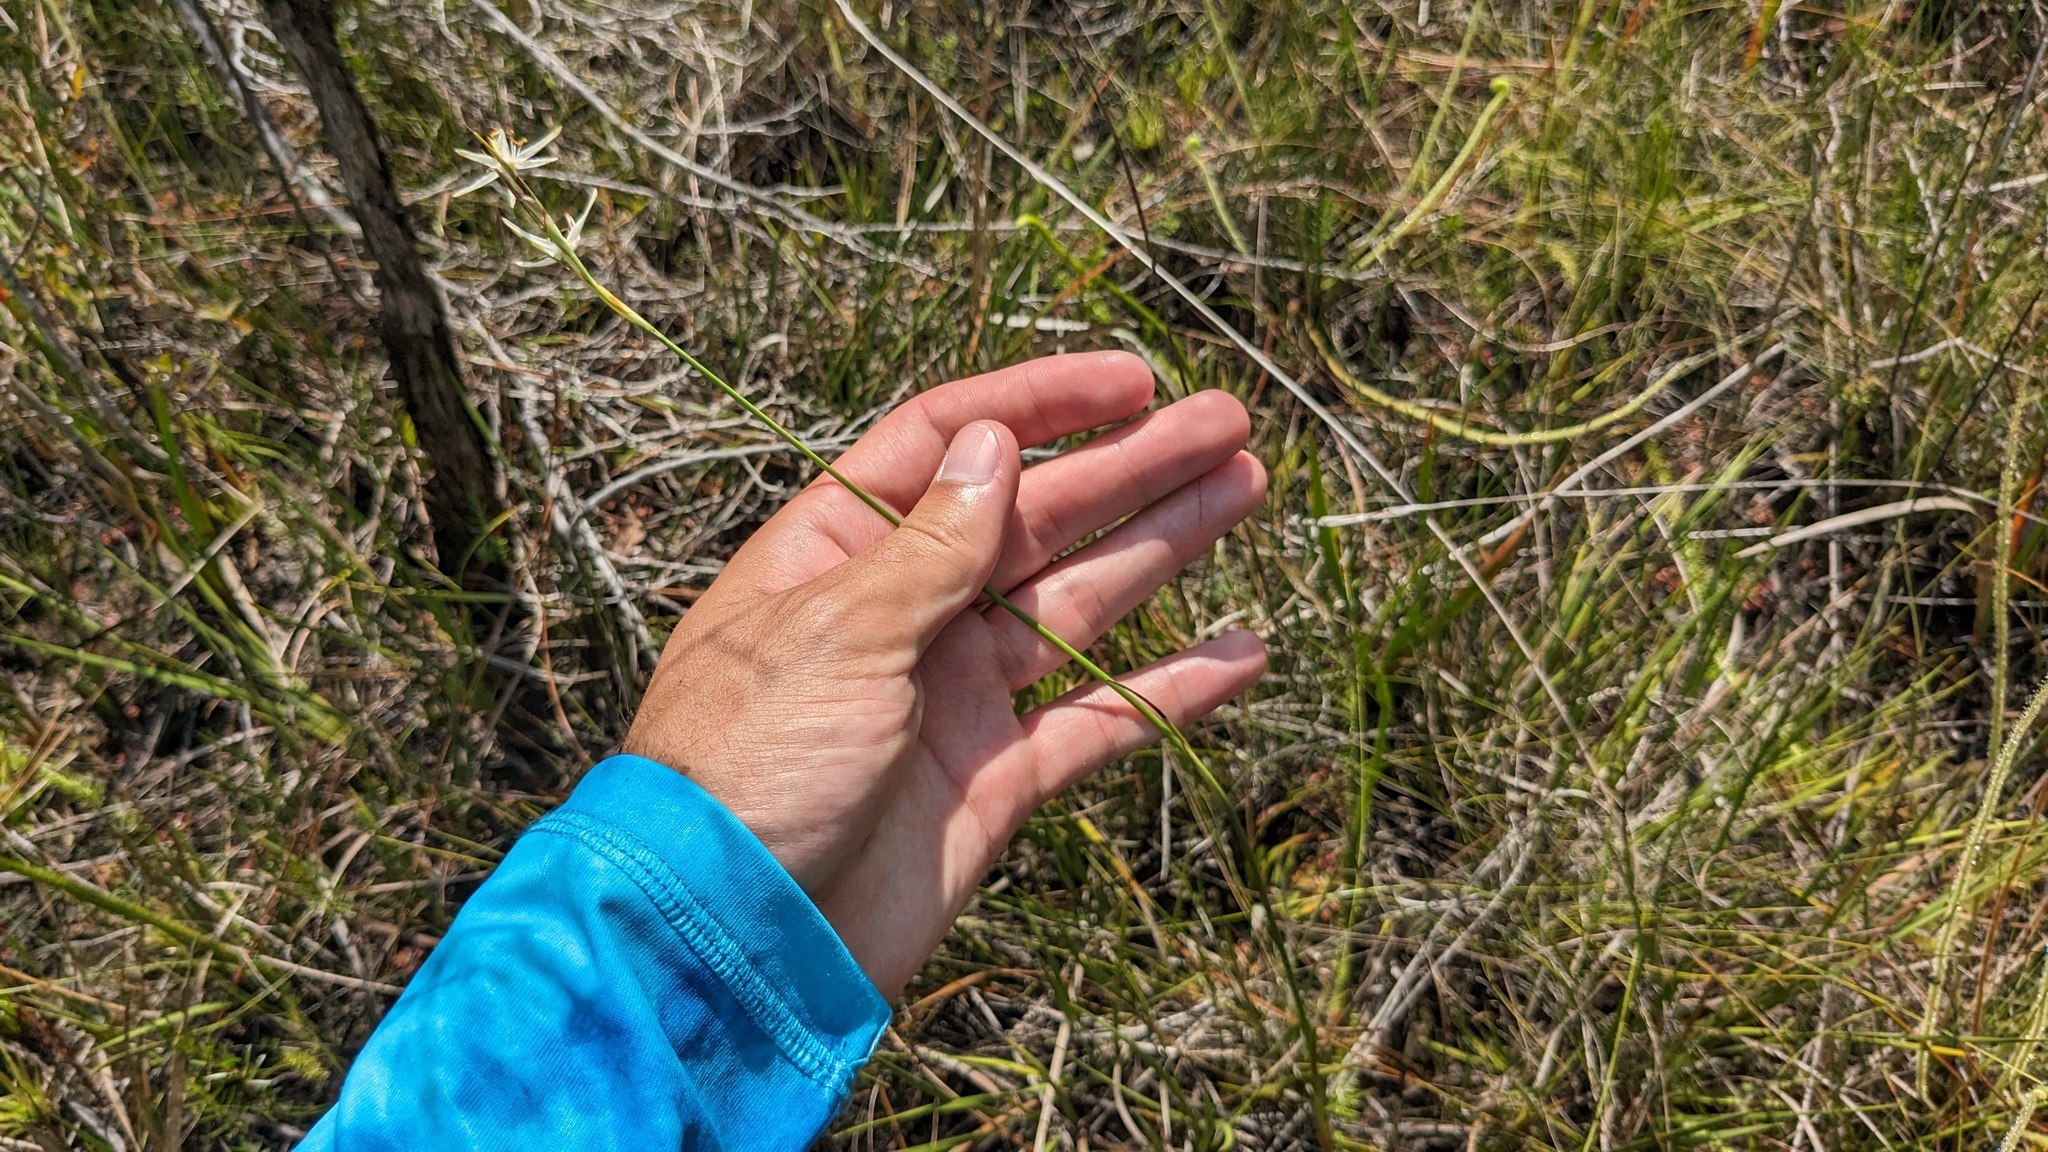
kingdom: Plantae
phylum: Tracheophyta
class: Liliopsida
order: Alismatales
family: Tofieldiaceae
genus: Pleea
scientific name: Pleea tenuifolia
